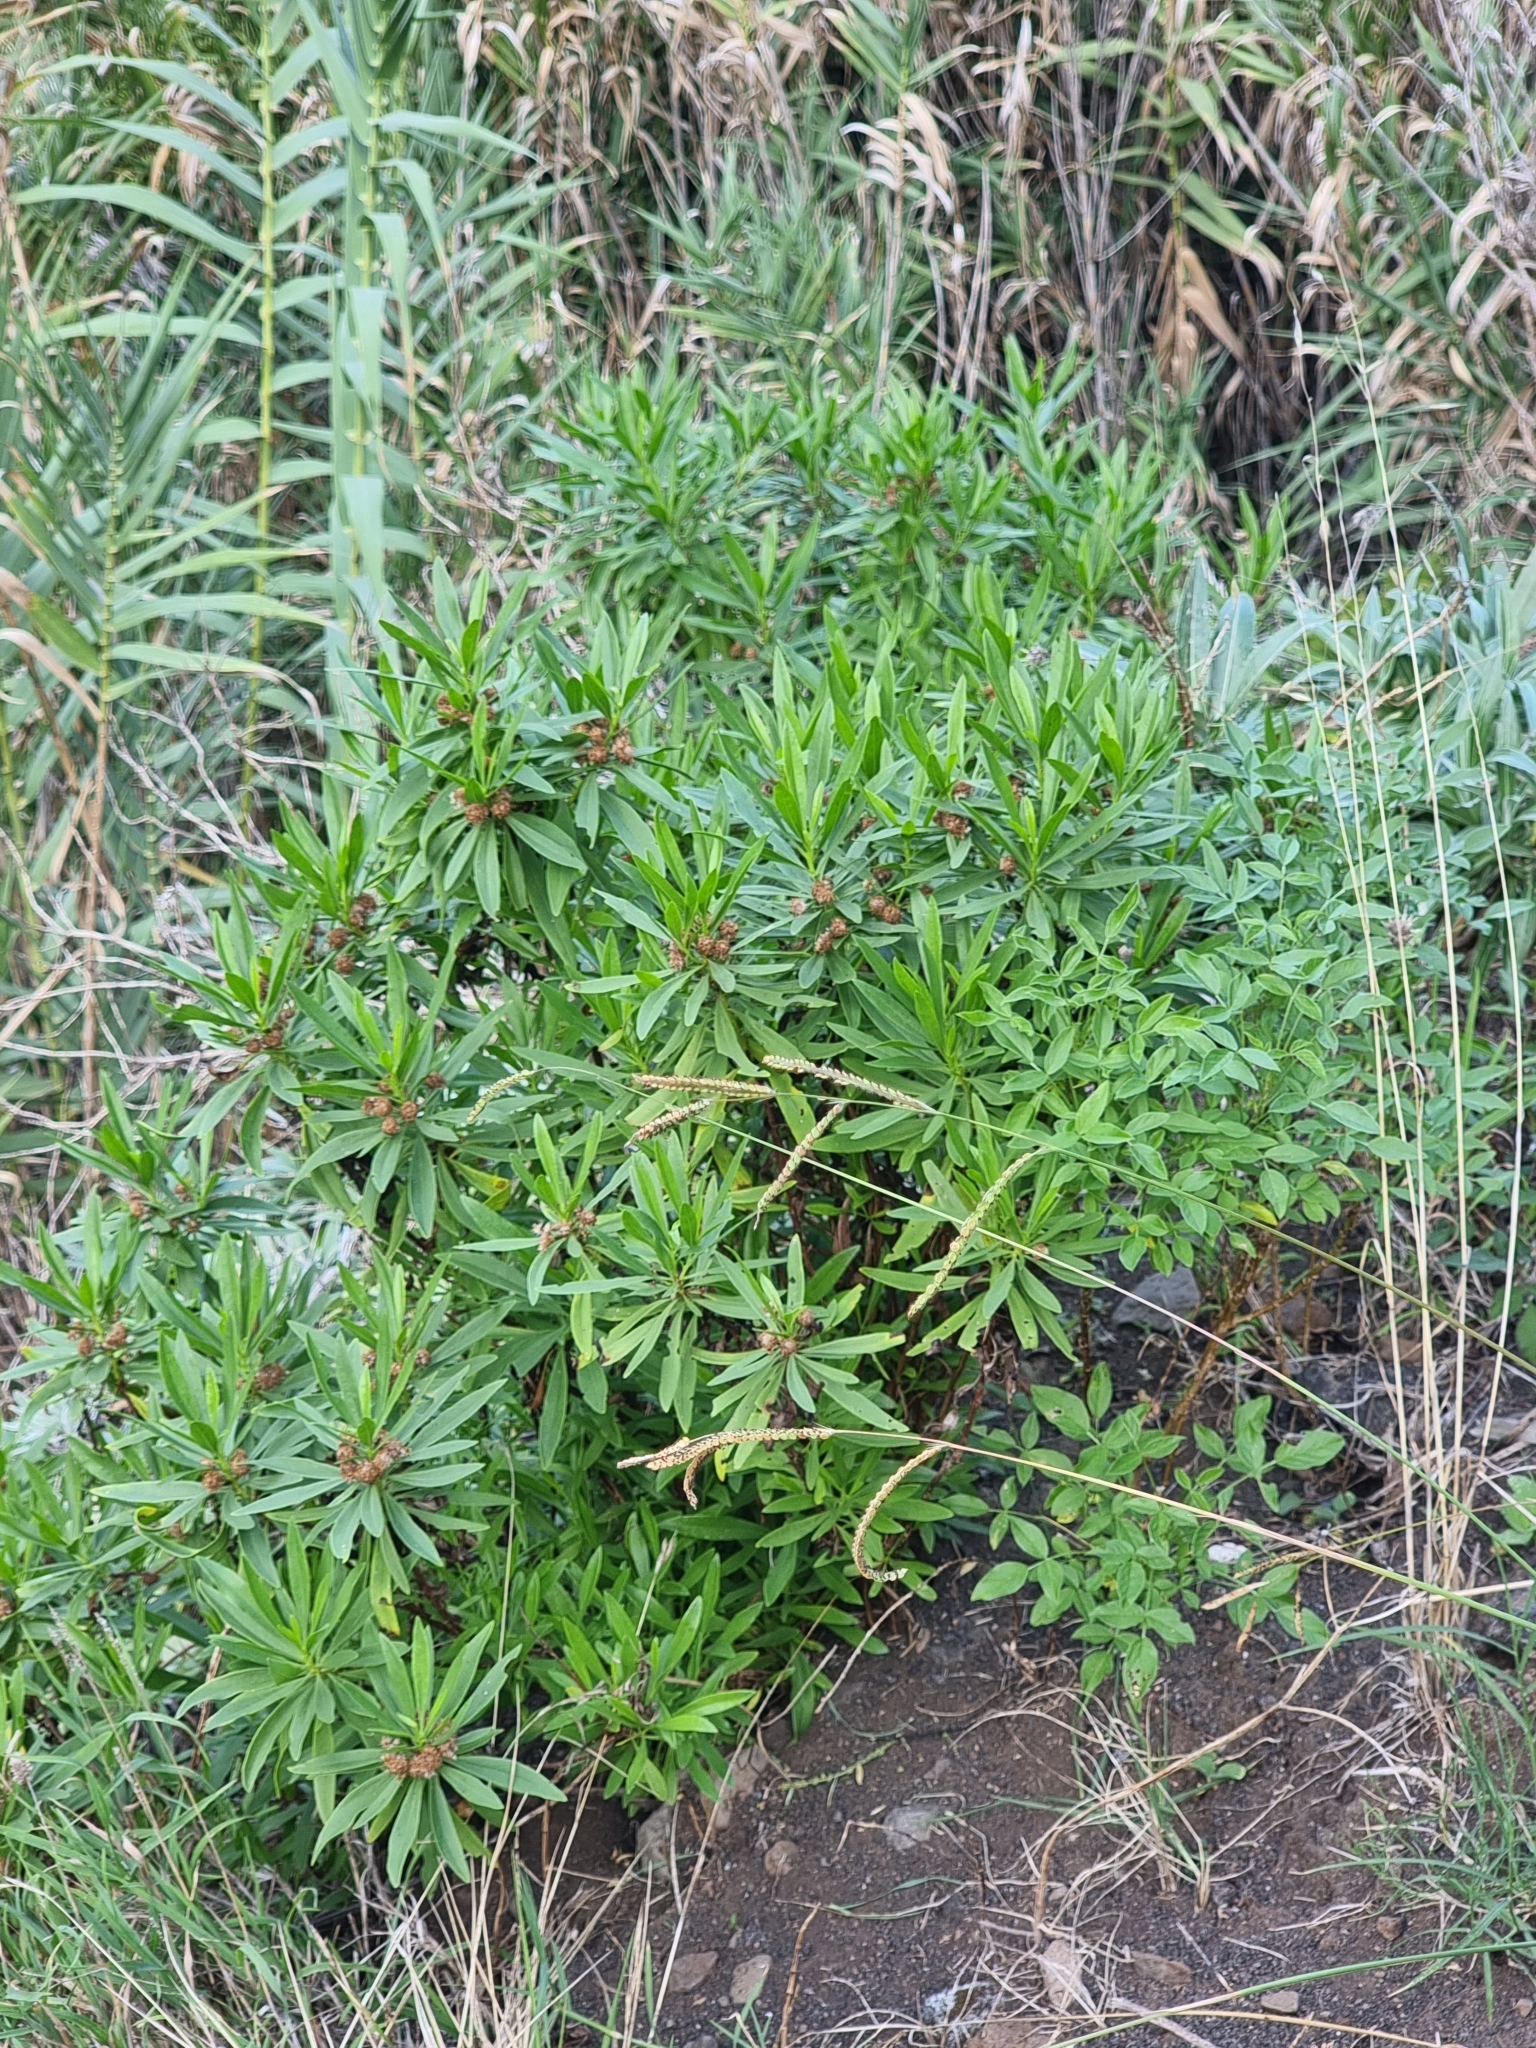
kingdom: Plantae
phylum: Tracheophyta
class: Magnoliopsida
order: Lamiales
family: Plantaginaceae
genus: Globularia
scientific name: Globularia salicina
